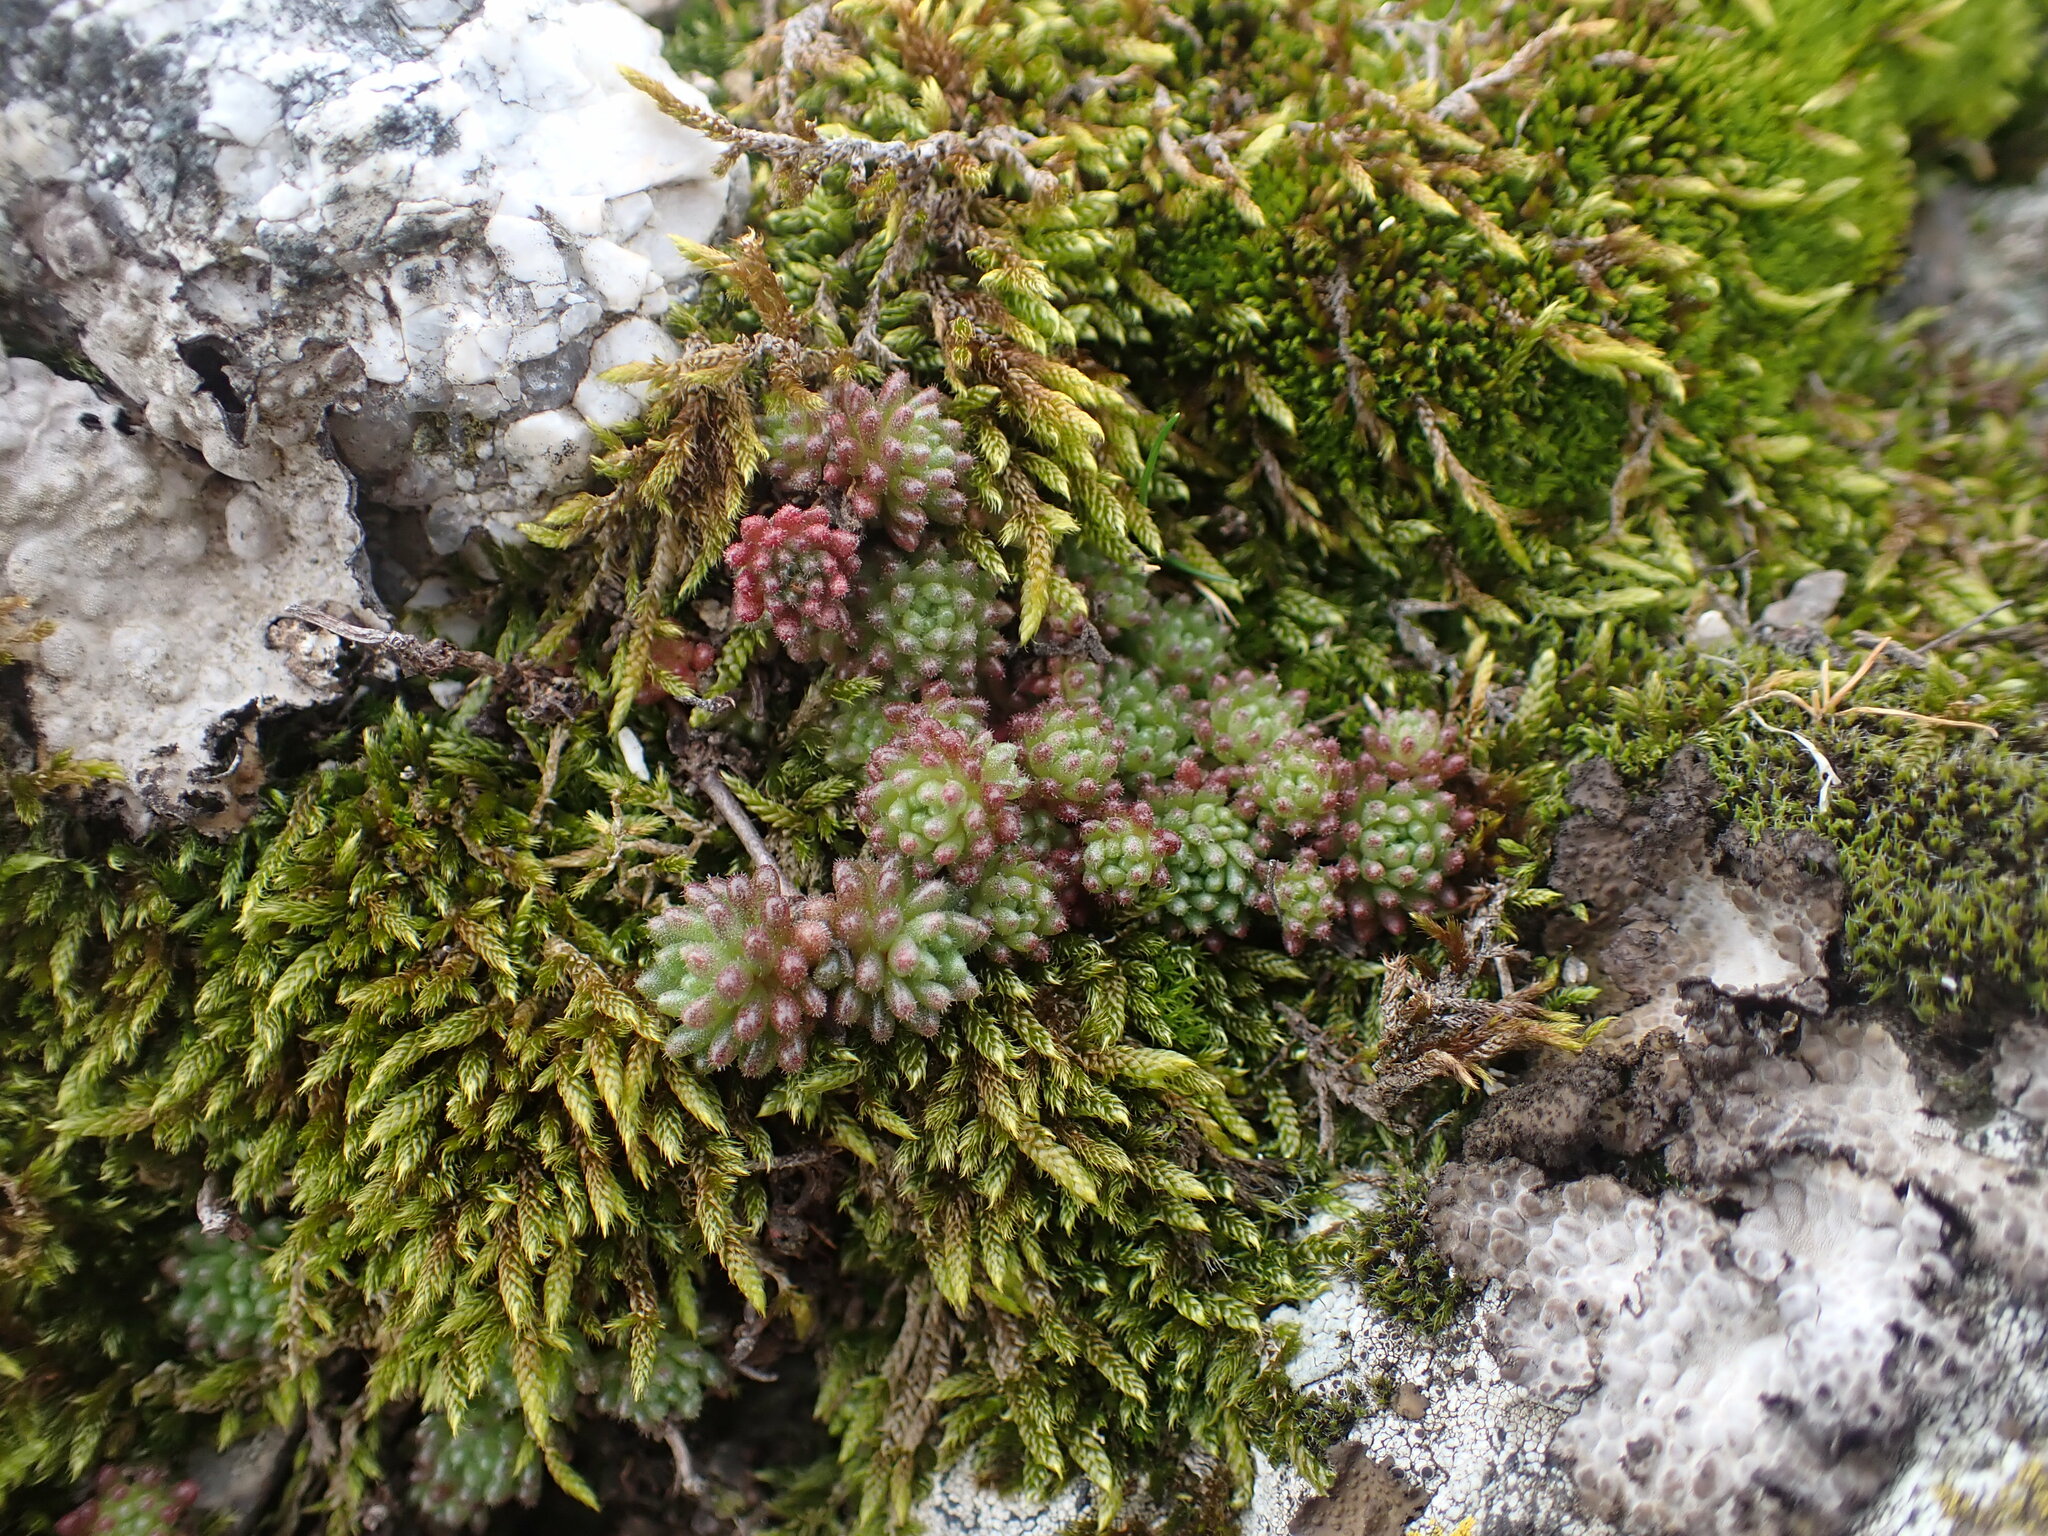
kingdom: Plantae
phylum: Tracheophyta
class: Magnoliopsida
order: Saxifragales
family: Crassulaceae
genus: Sedum
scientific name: Sedum hirsutum
